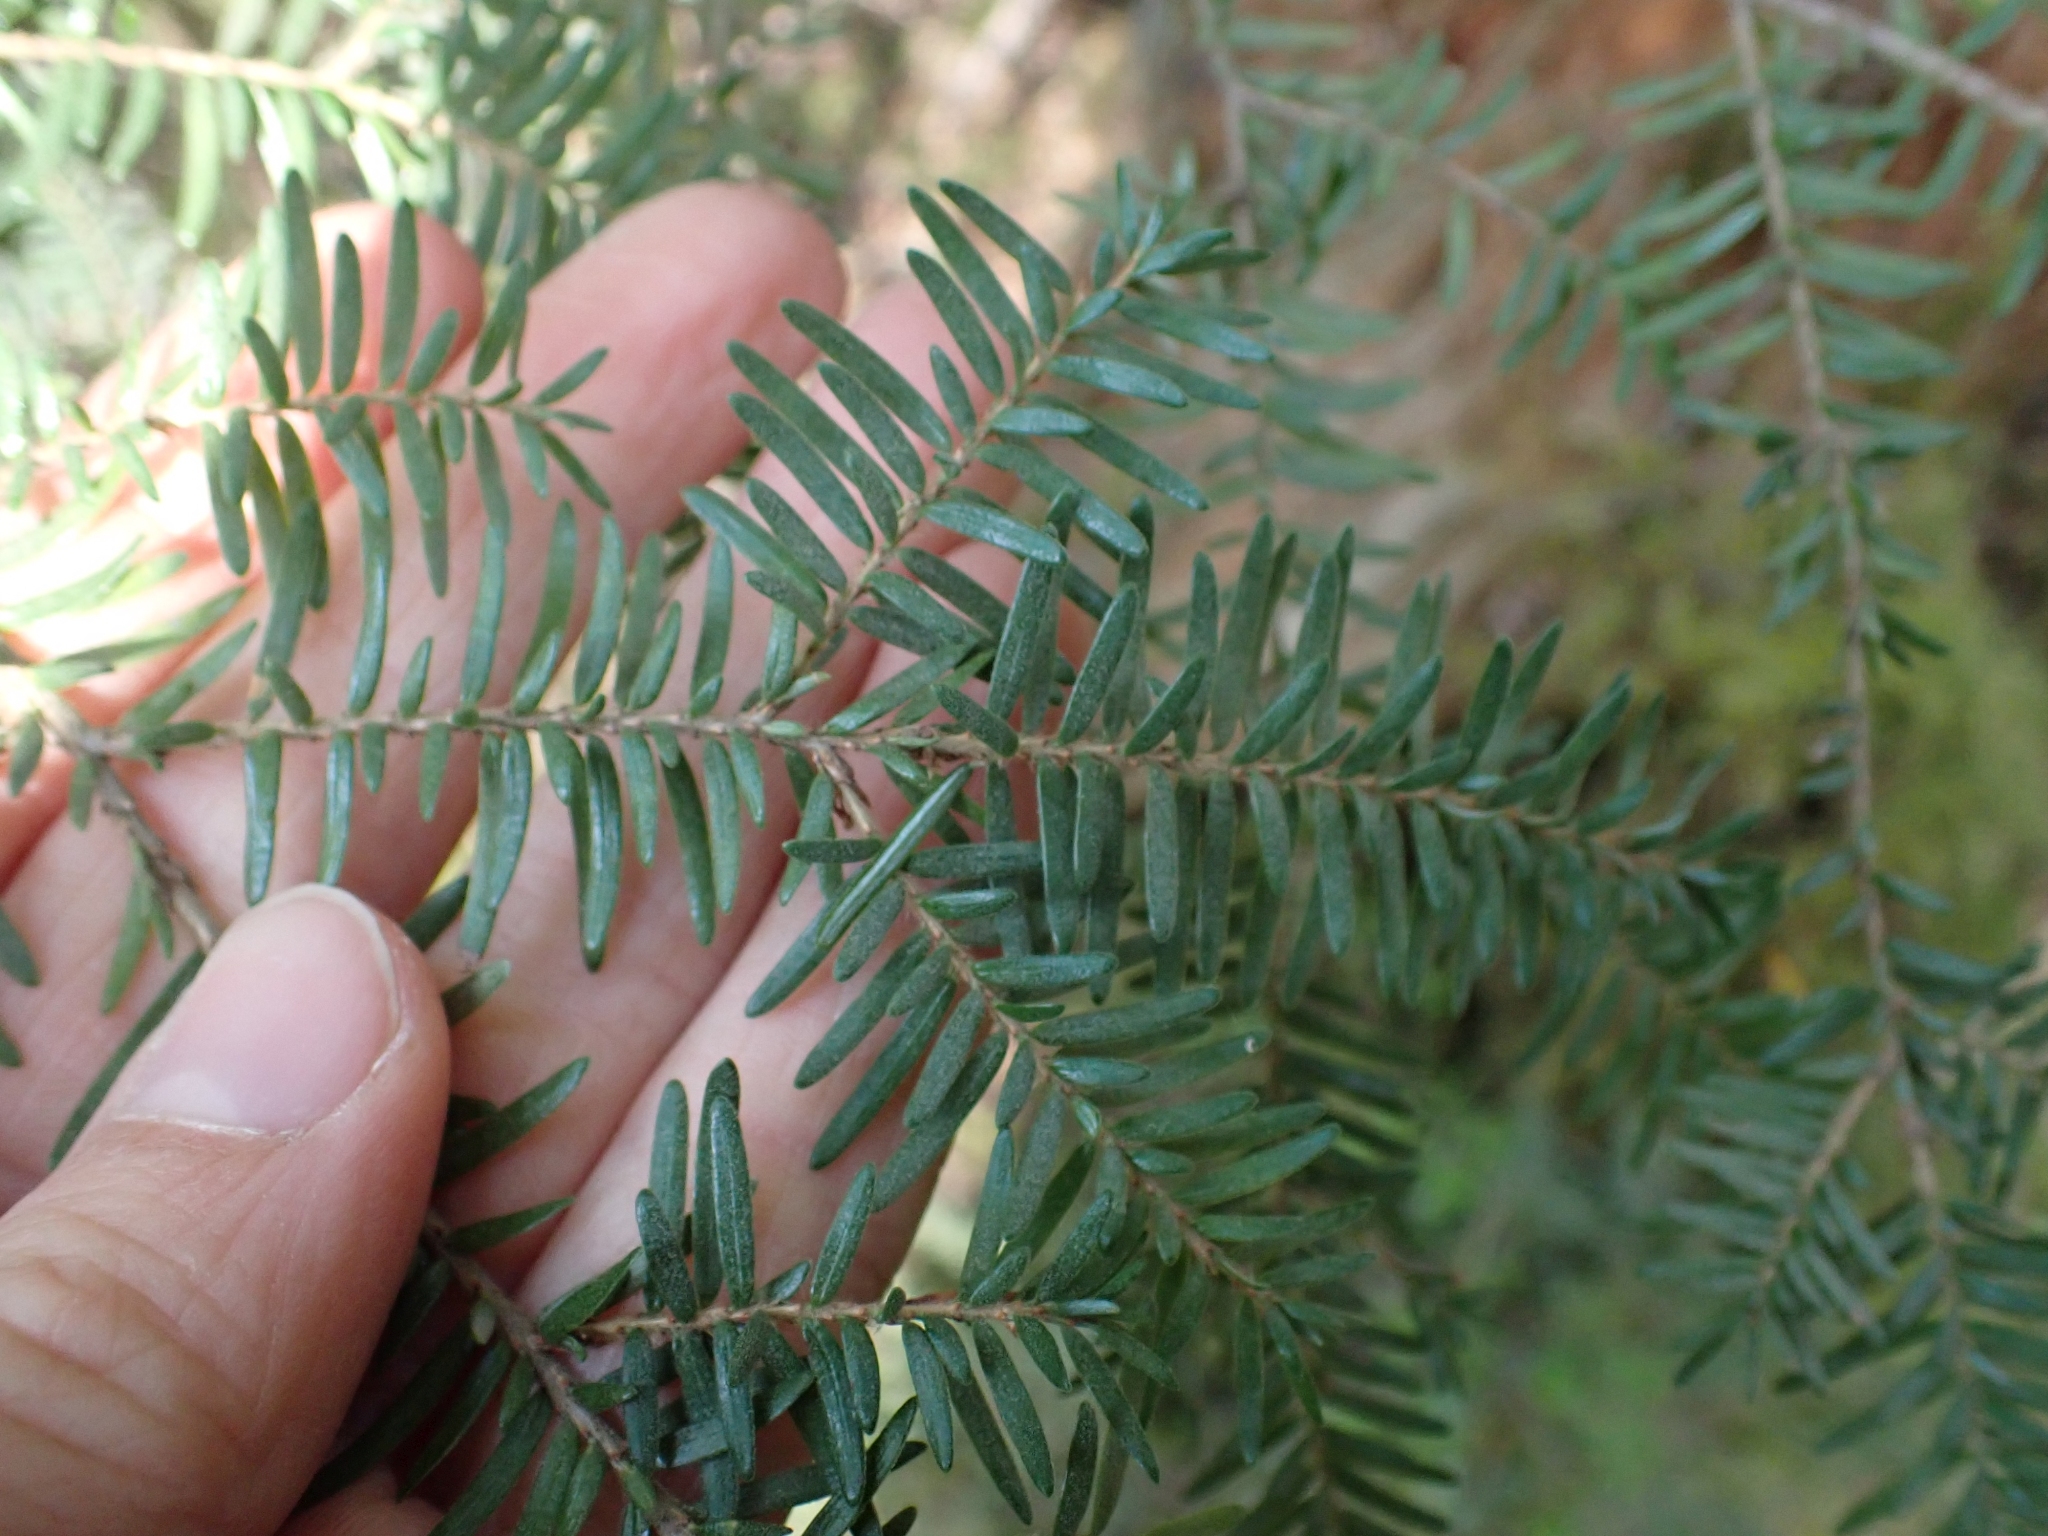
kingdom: Plantae
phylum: Tracheophyta
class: Pinopsida
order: Pinales
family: Pinaceae
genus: Tsuga
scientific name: Tsuga heterophylla
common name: Western hemlock
